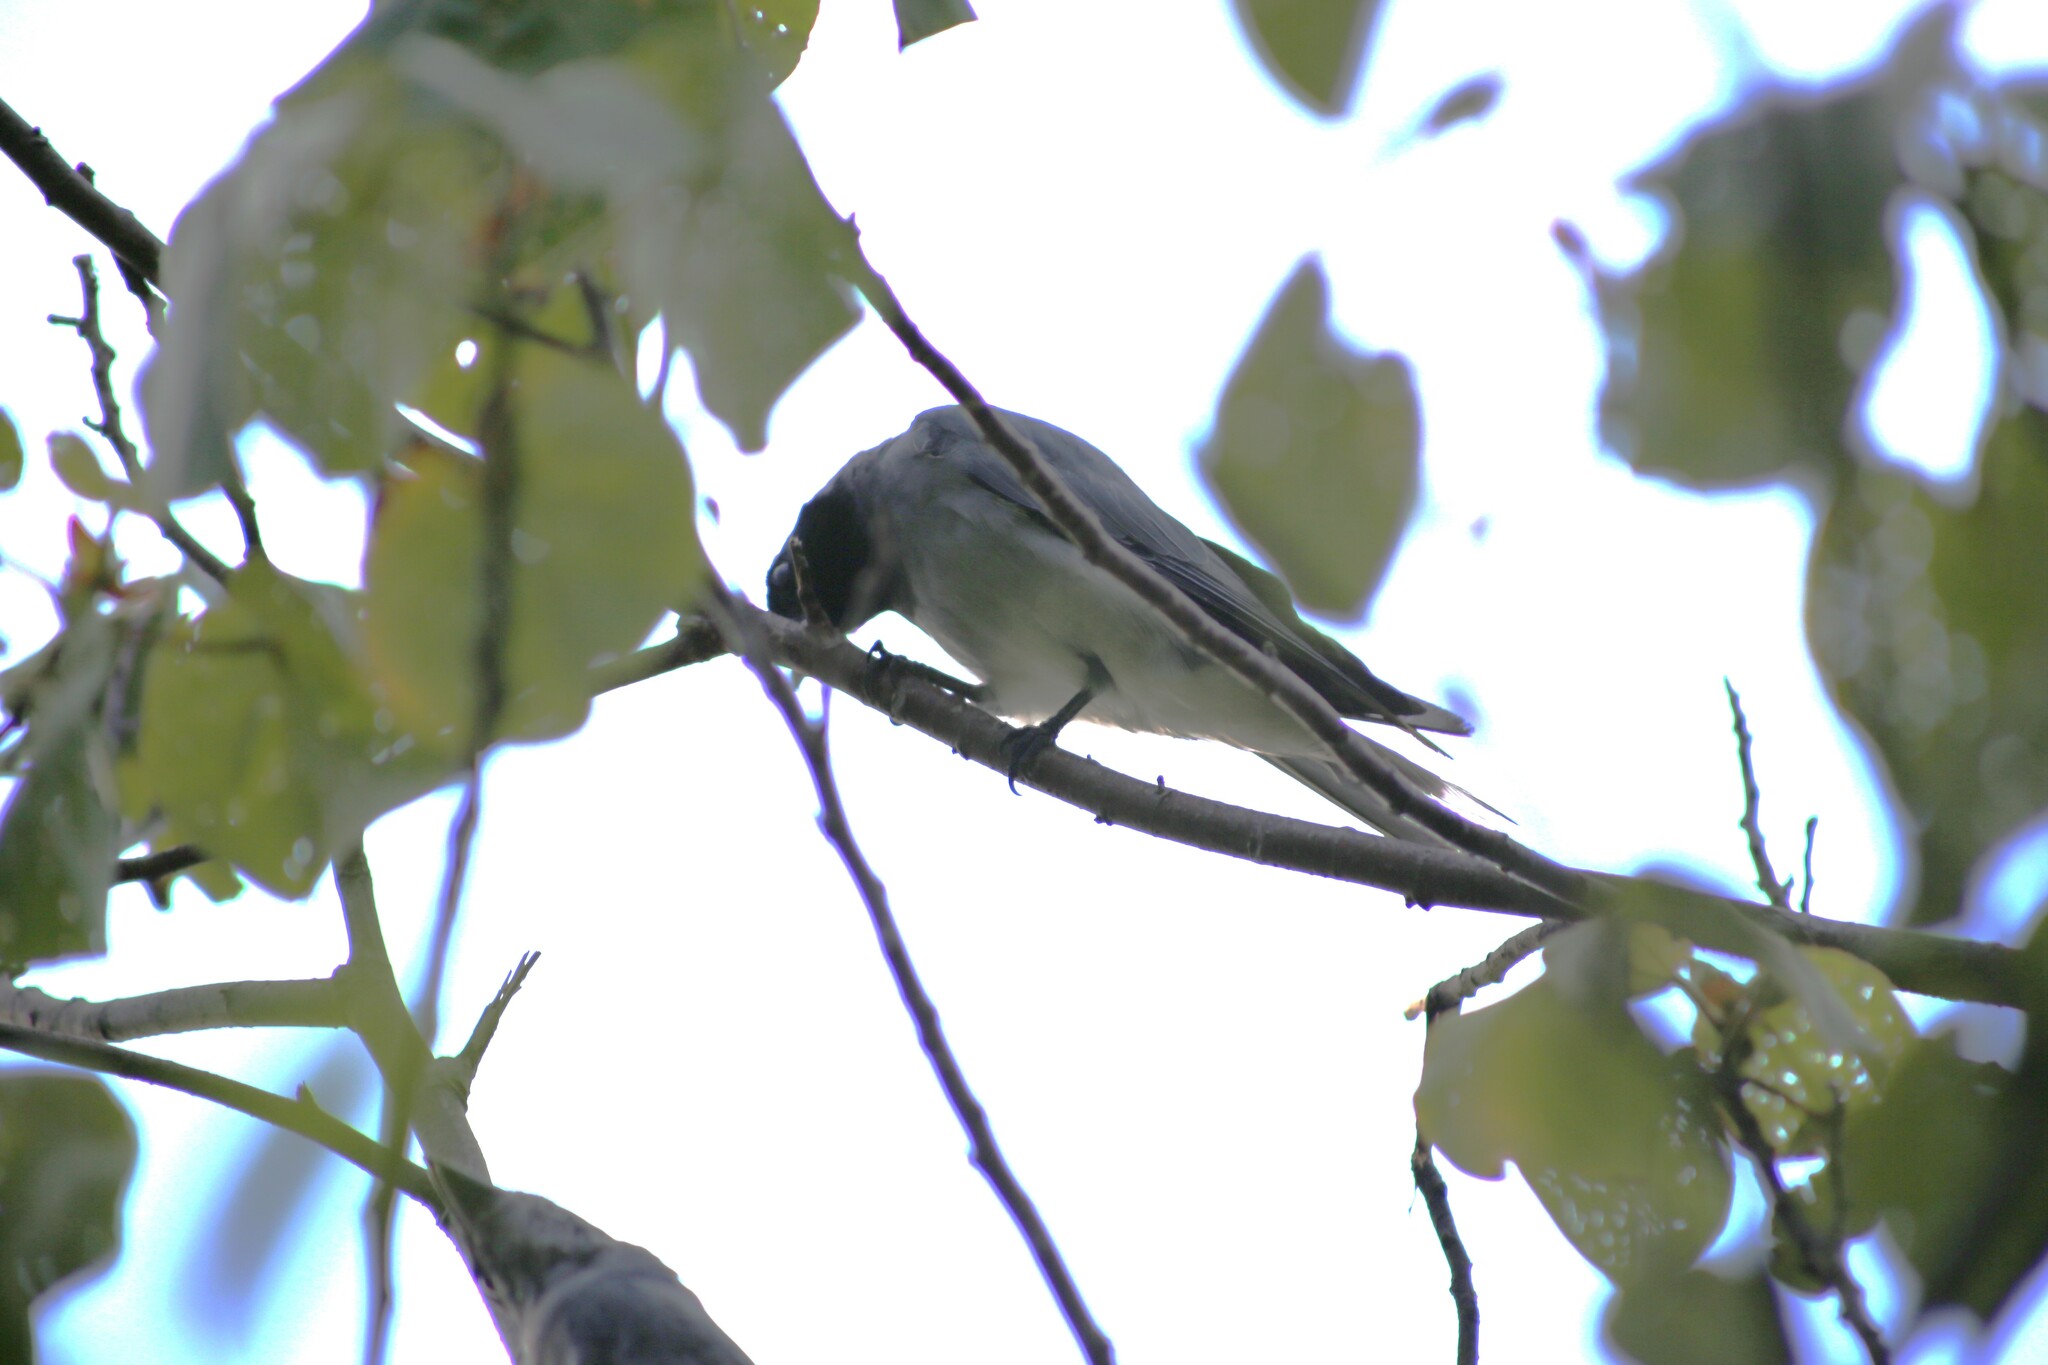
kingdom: Animalia
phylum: Chordata
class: Aves
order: Passeriformes
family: Campephagidae
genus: Coracina
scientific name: Coracina novaehollandiae
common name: Black-faced cuckooshrike
